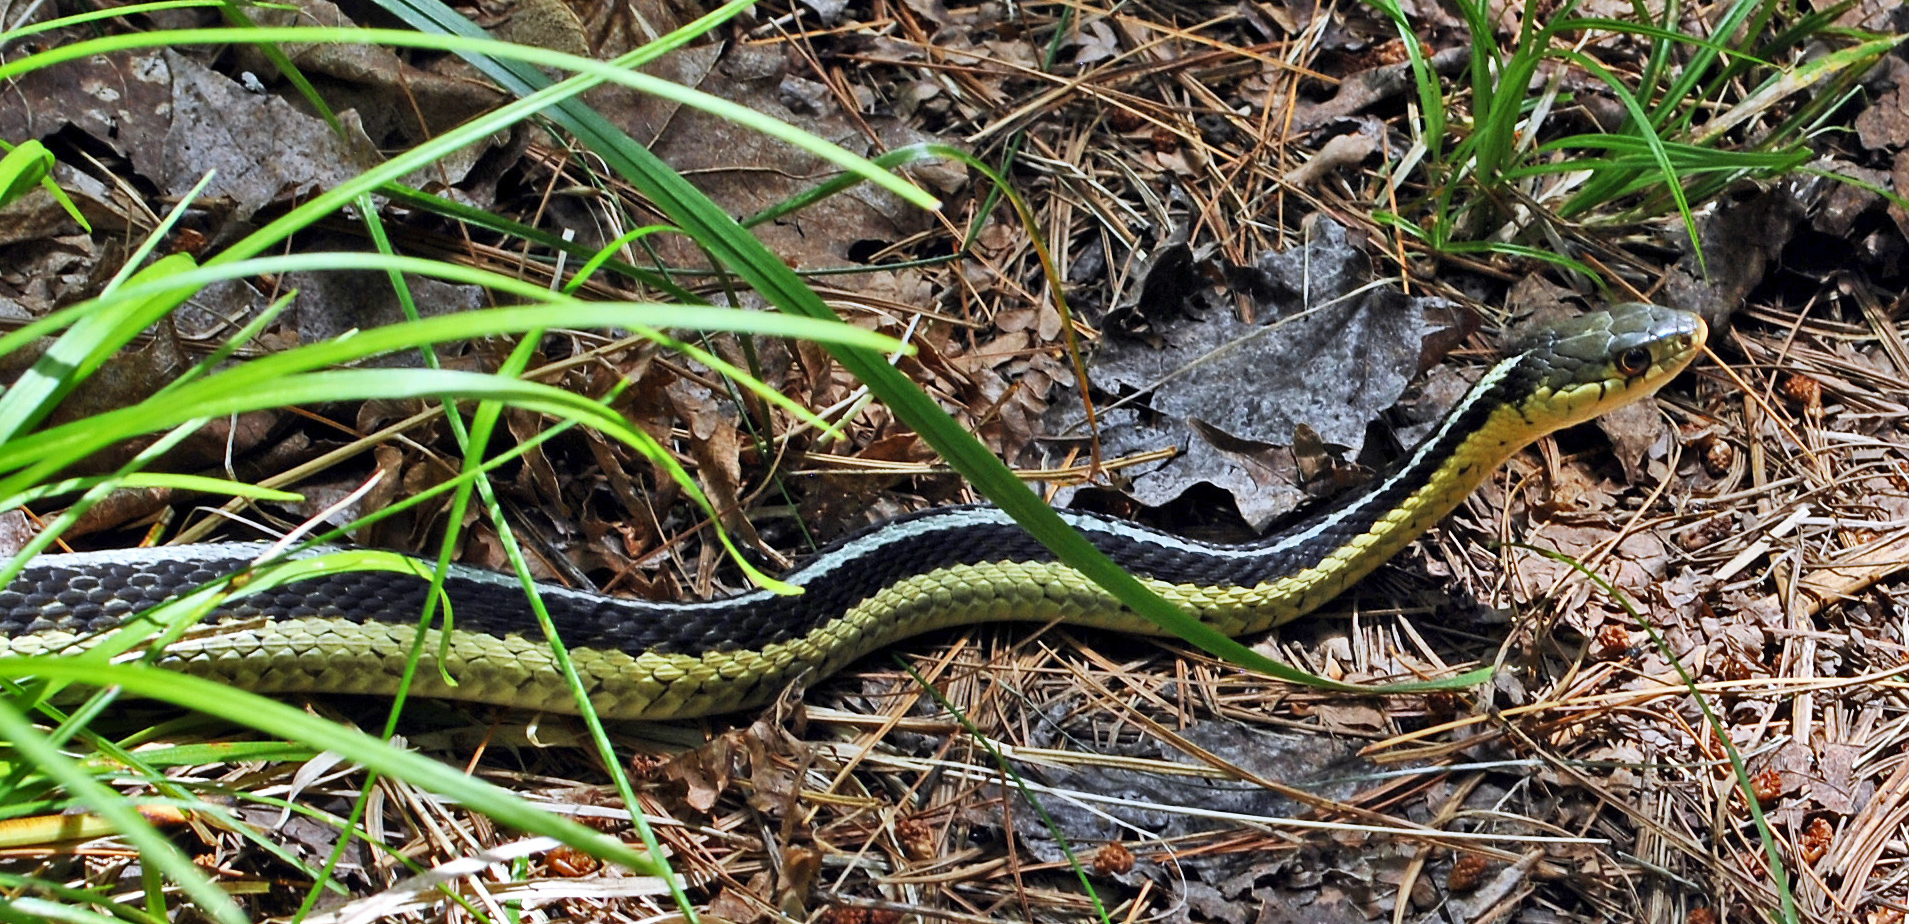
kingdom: Animalia
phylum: Chordata
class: Squamata
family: Colubridae
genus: Thamnophis
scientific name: Thamnophis sirtalis
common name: Common garter snake
